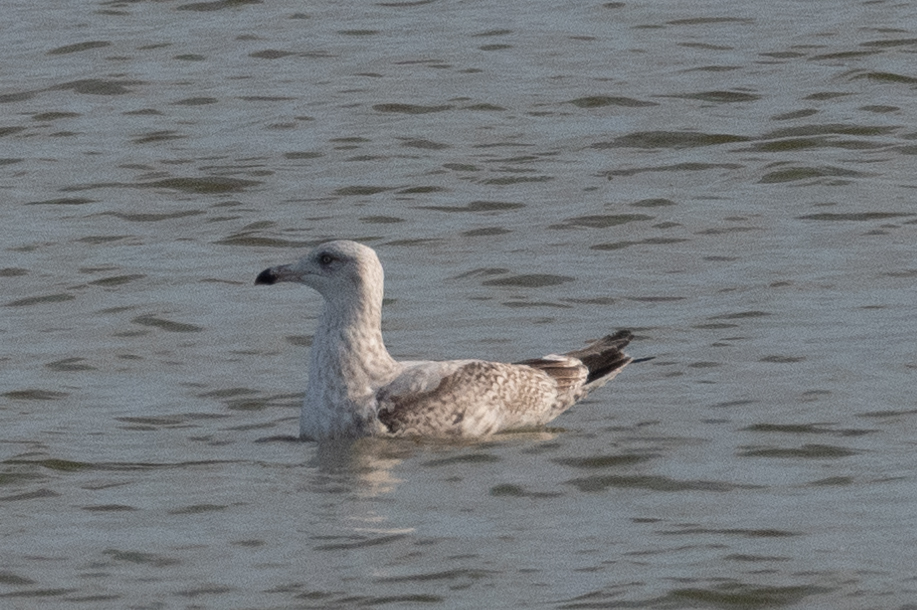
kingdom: Animalia
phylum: Chordata
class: Aves
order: Charadriiformes
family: Laridae
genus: Larus
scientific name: Larus argentatus
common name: Herring gull
